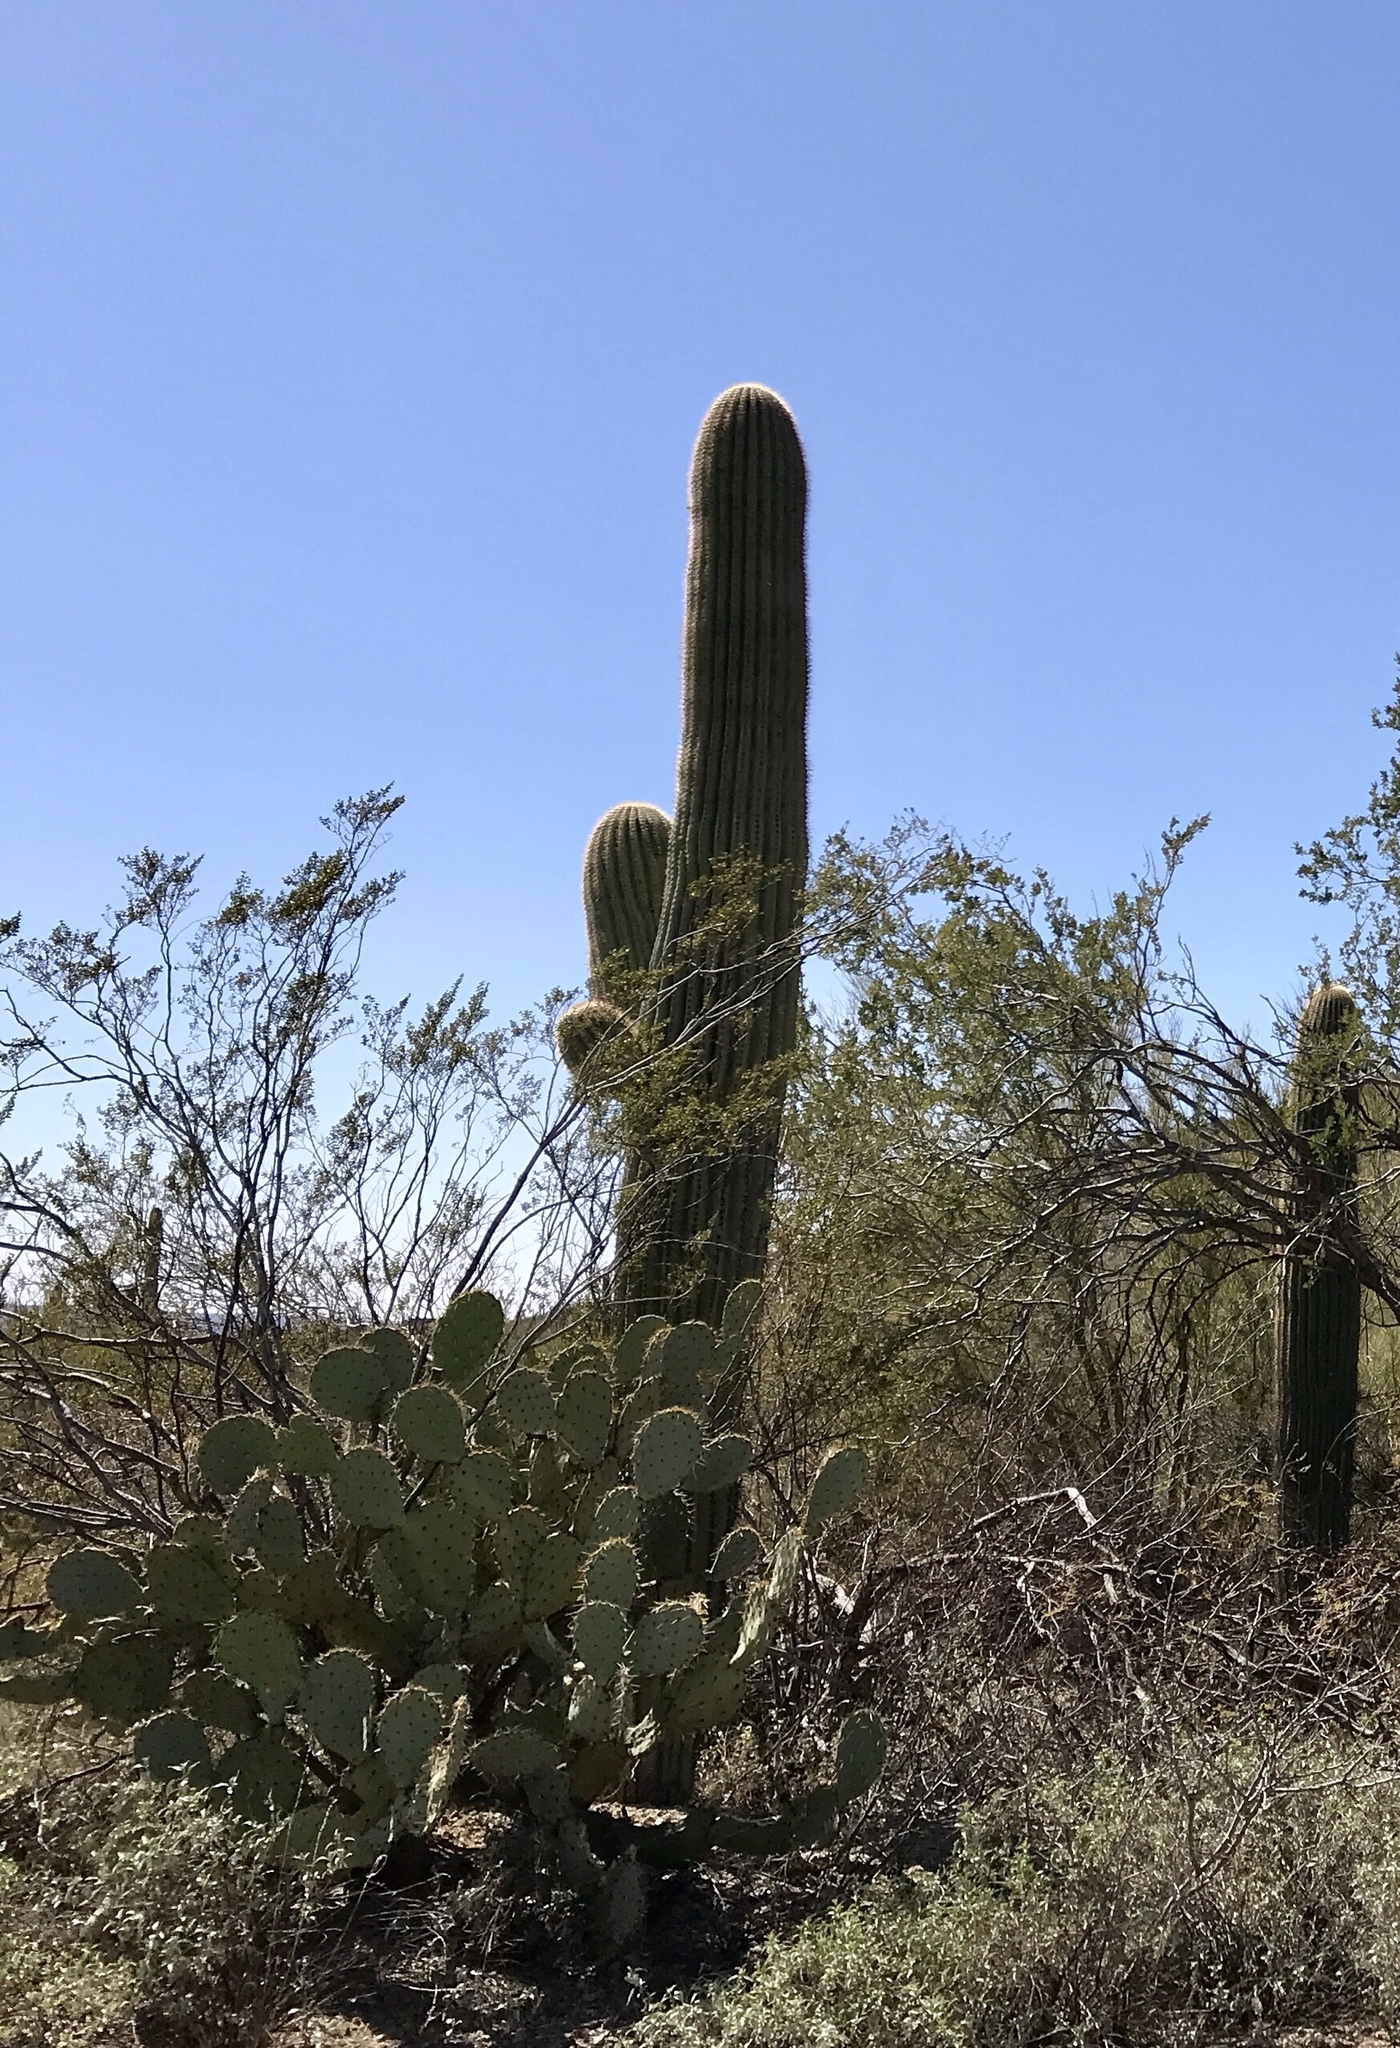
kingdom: Plantae
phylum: Tracheophyta
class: Magnoliopsida
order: Caryophyllales
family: Cactaceae
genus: Carnegiea
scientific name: Carnegiea gigantea
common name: Saguaro
